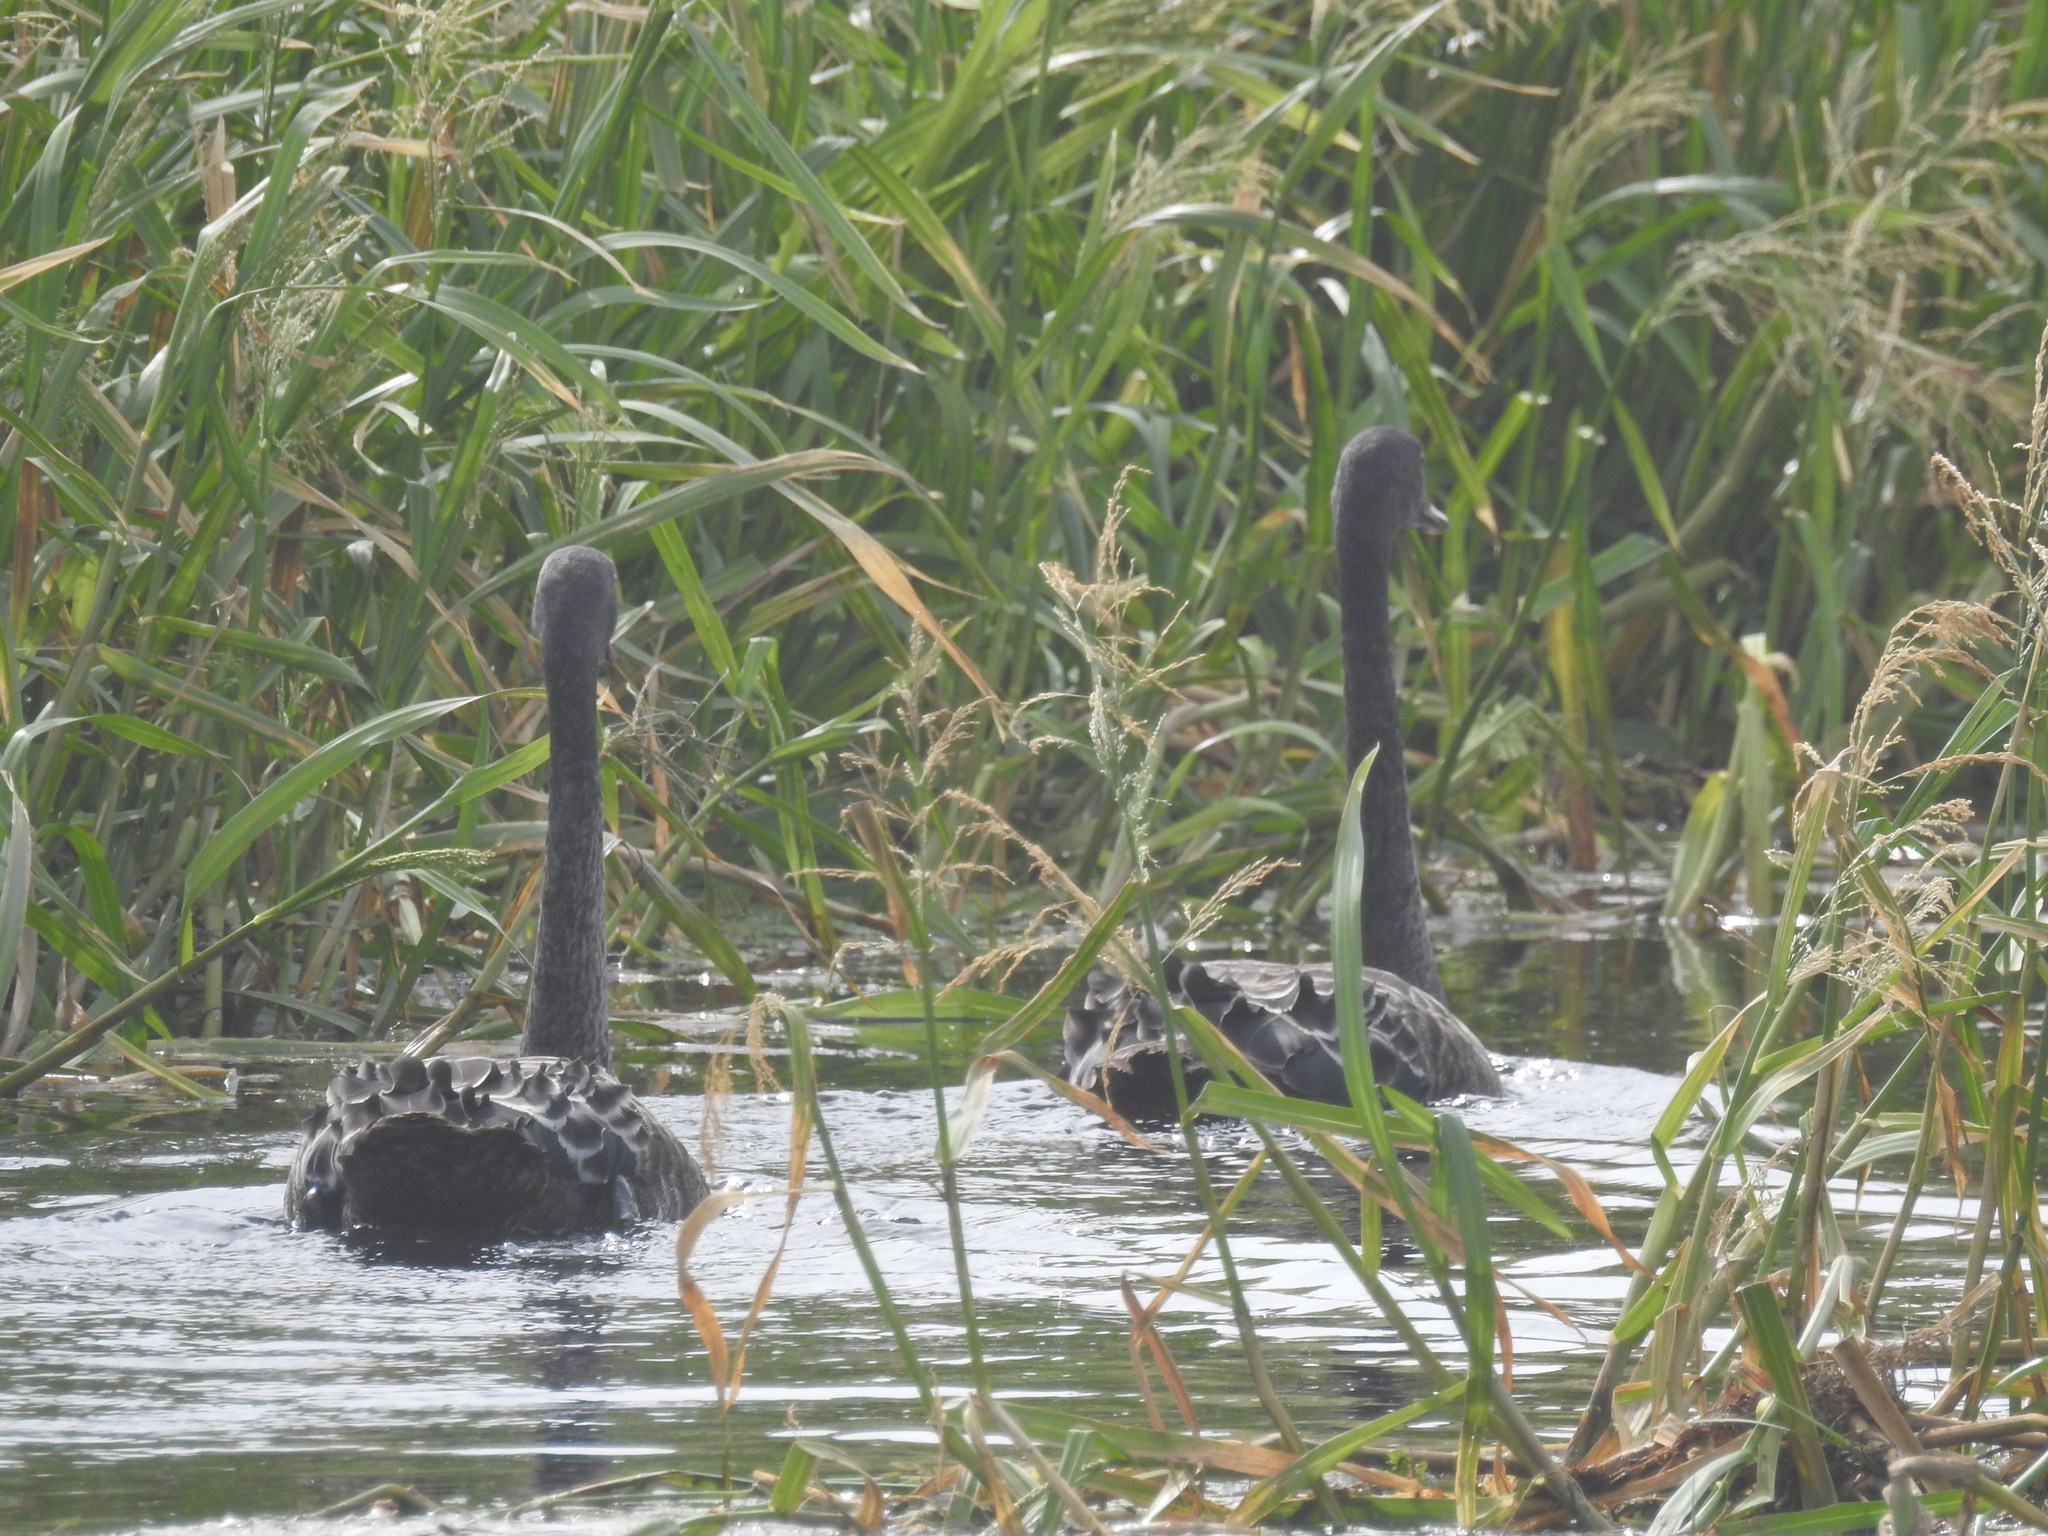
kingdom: Animalia
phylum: Chordata
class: Aves
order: Anseriformes
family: Anatidae
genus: Cygnus
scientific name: Cygnus atratus
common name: Black swan
